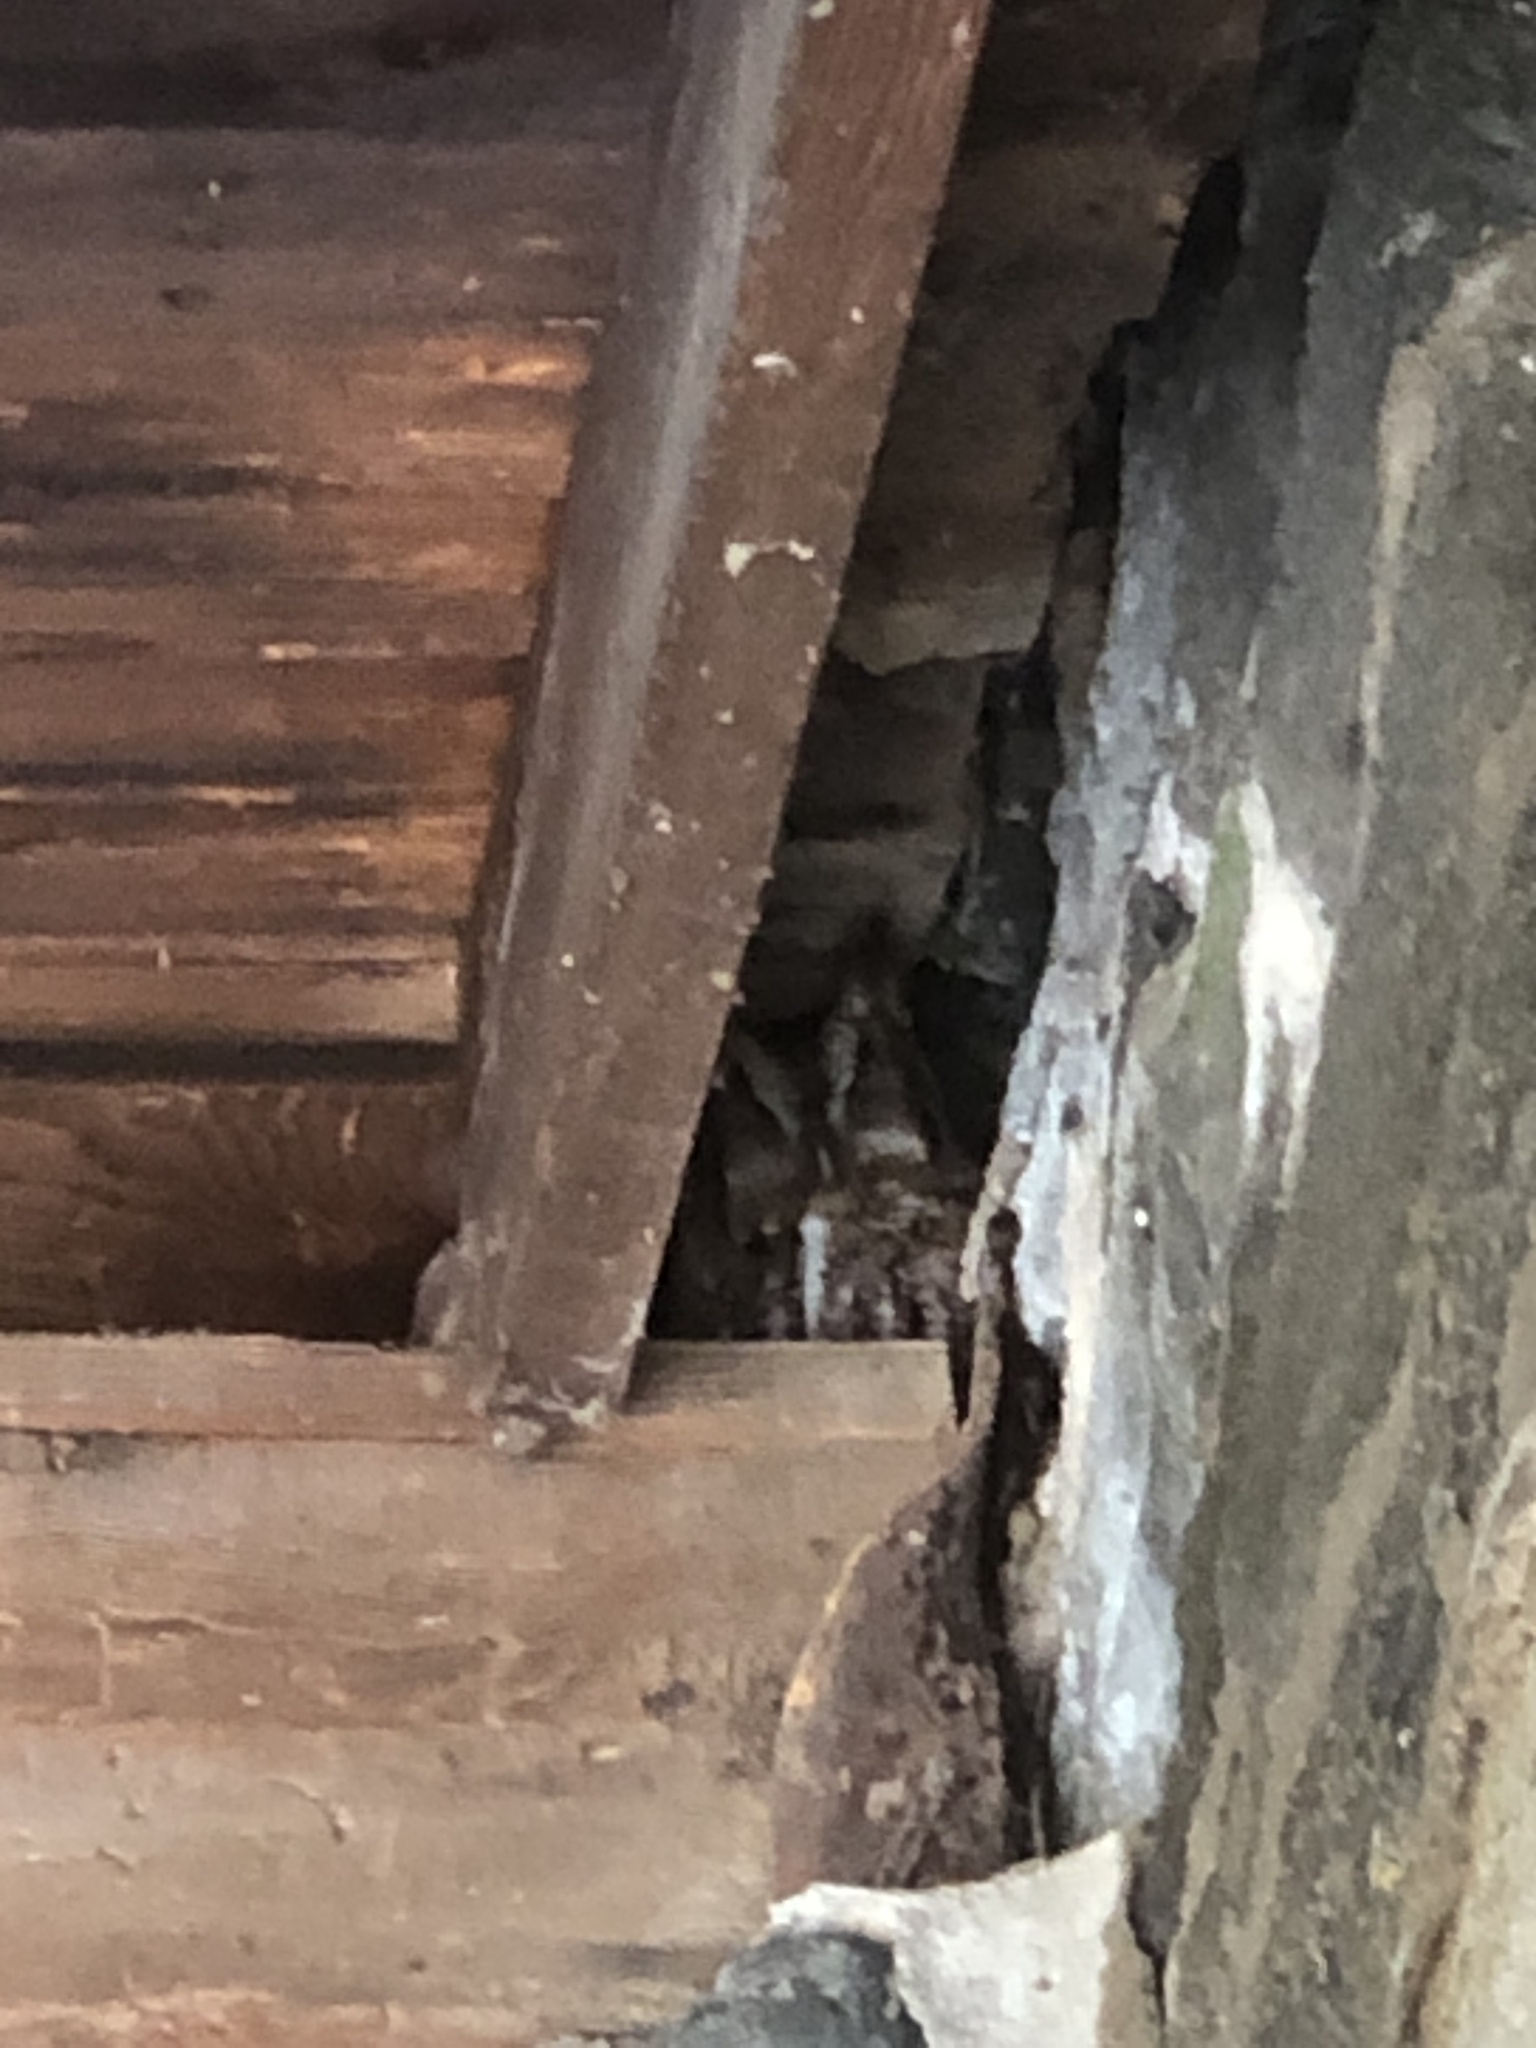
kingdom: Animalia
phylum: Chordata
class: Aves
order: Strigiformes
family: Strigidae
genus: Megascops
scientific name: Megascops asio
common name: Eastern screech-owl
